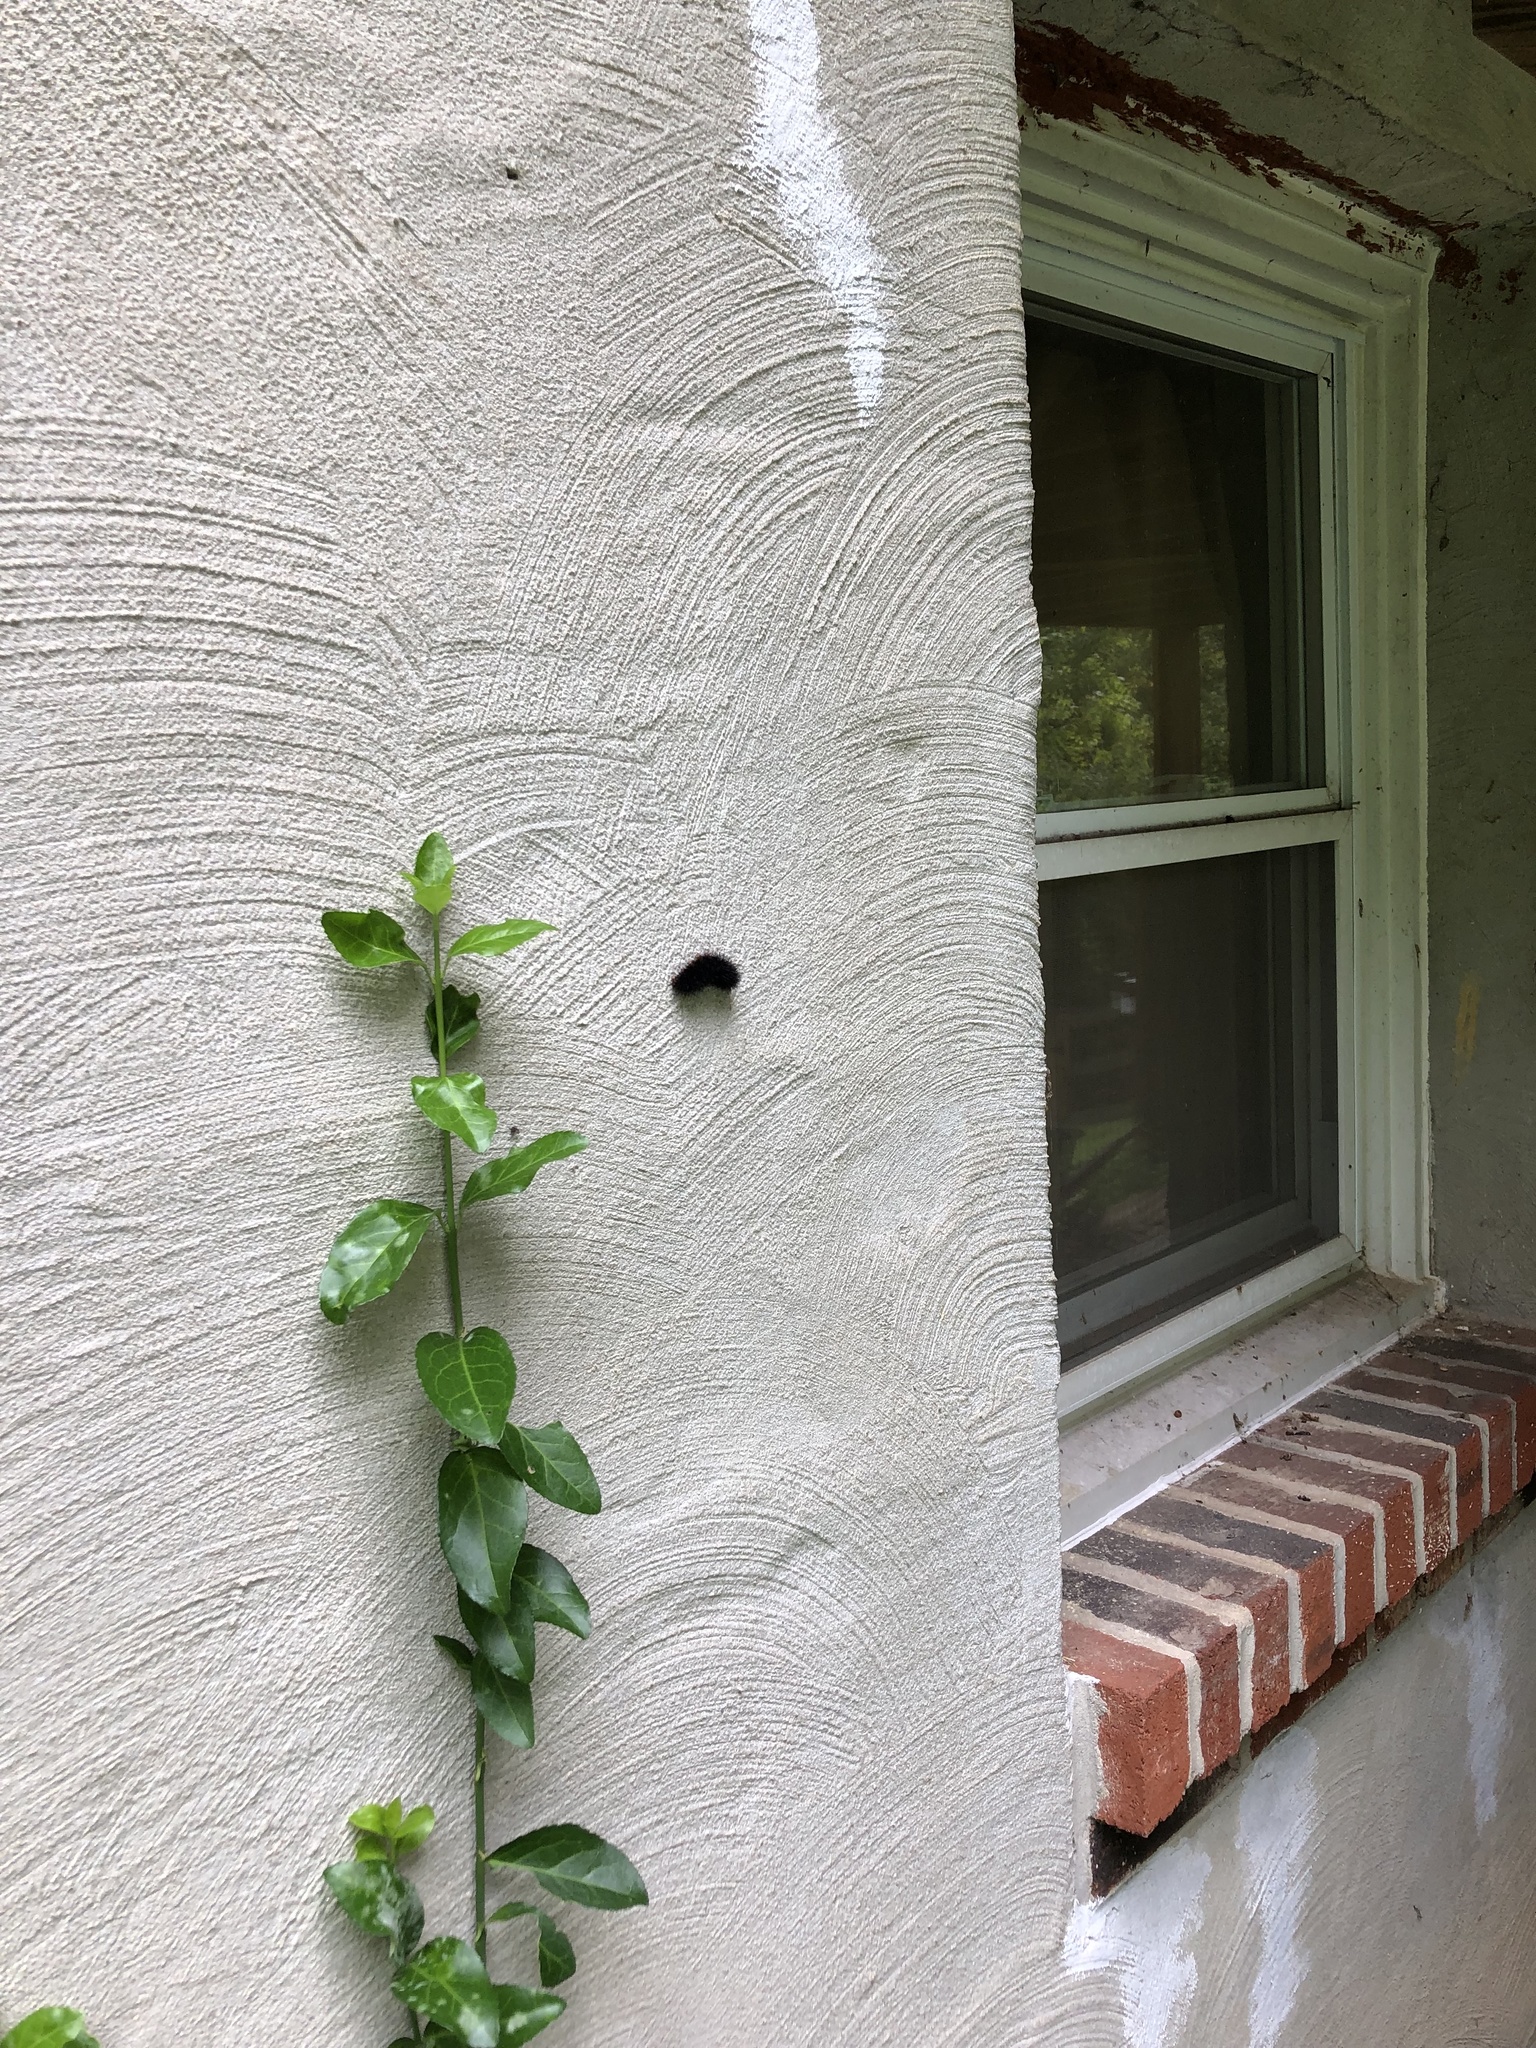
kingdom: Animalia
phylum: Arthropoda
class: Insecta
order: Lepidoptera
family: Erebidae
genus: Pyrrharctia
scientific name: Pyrrharctia isabella
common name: Isabella tiger moth
